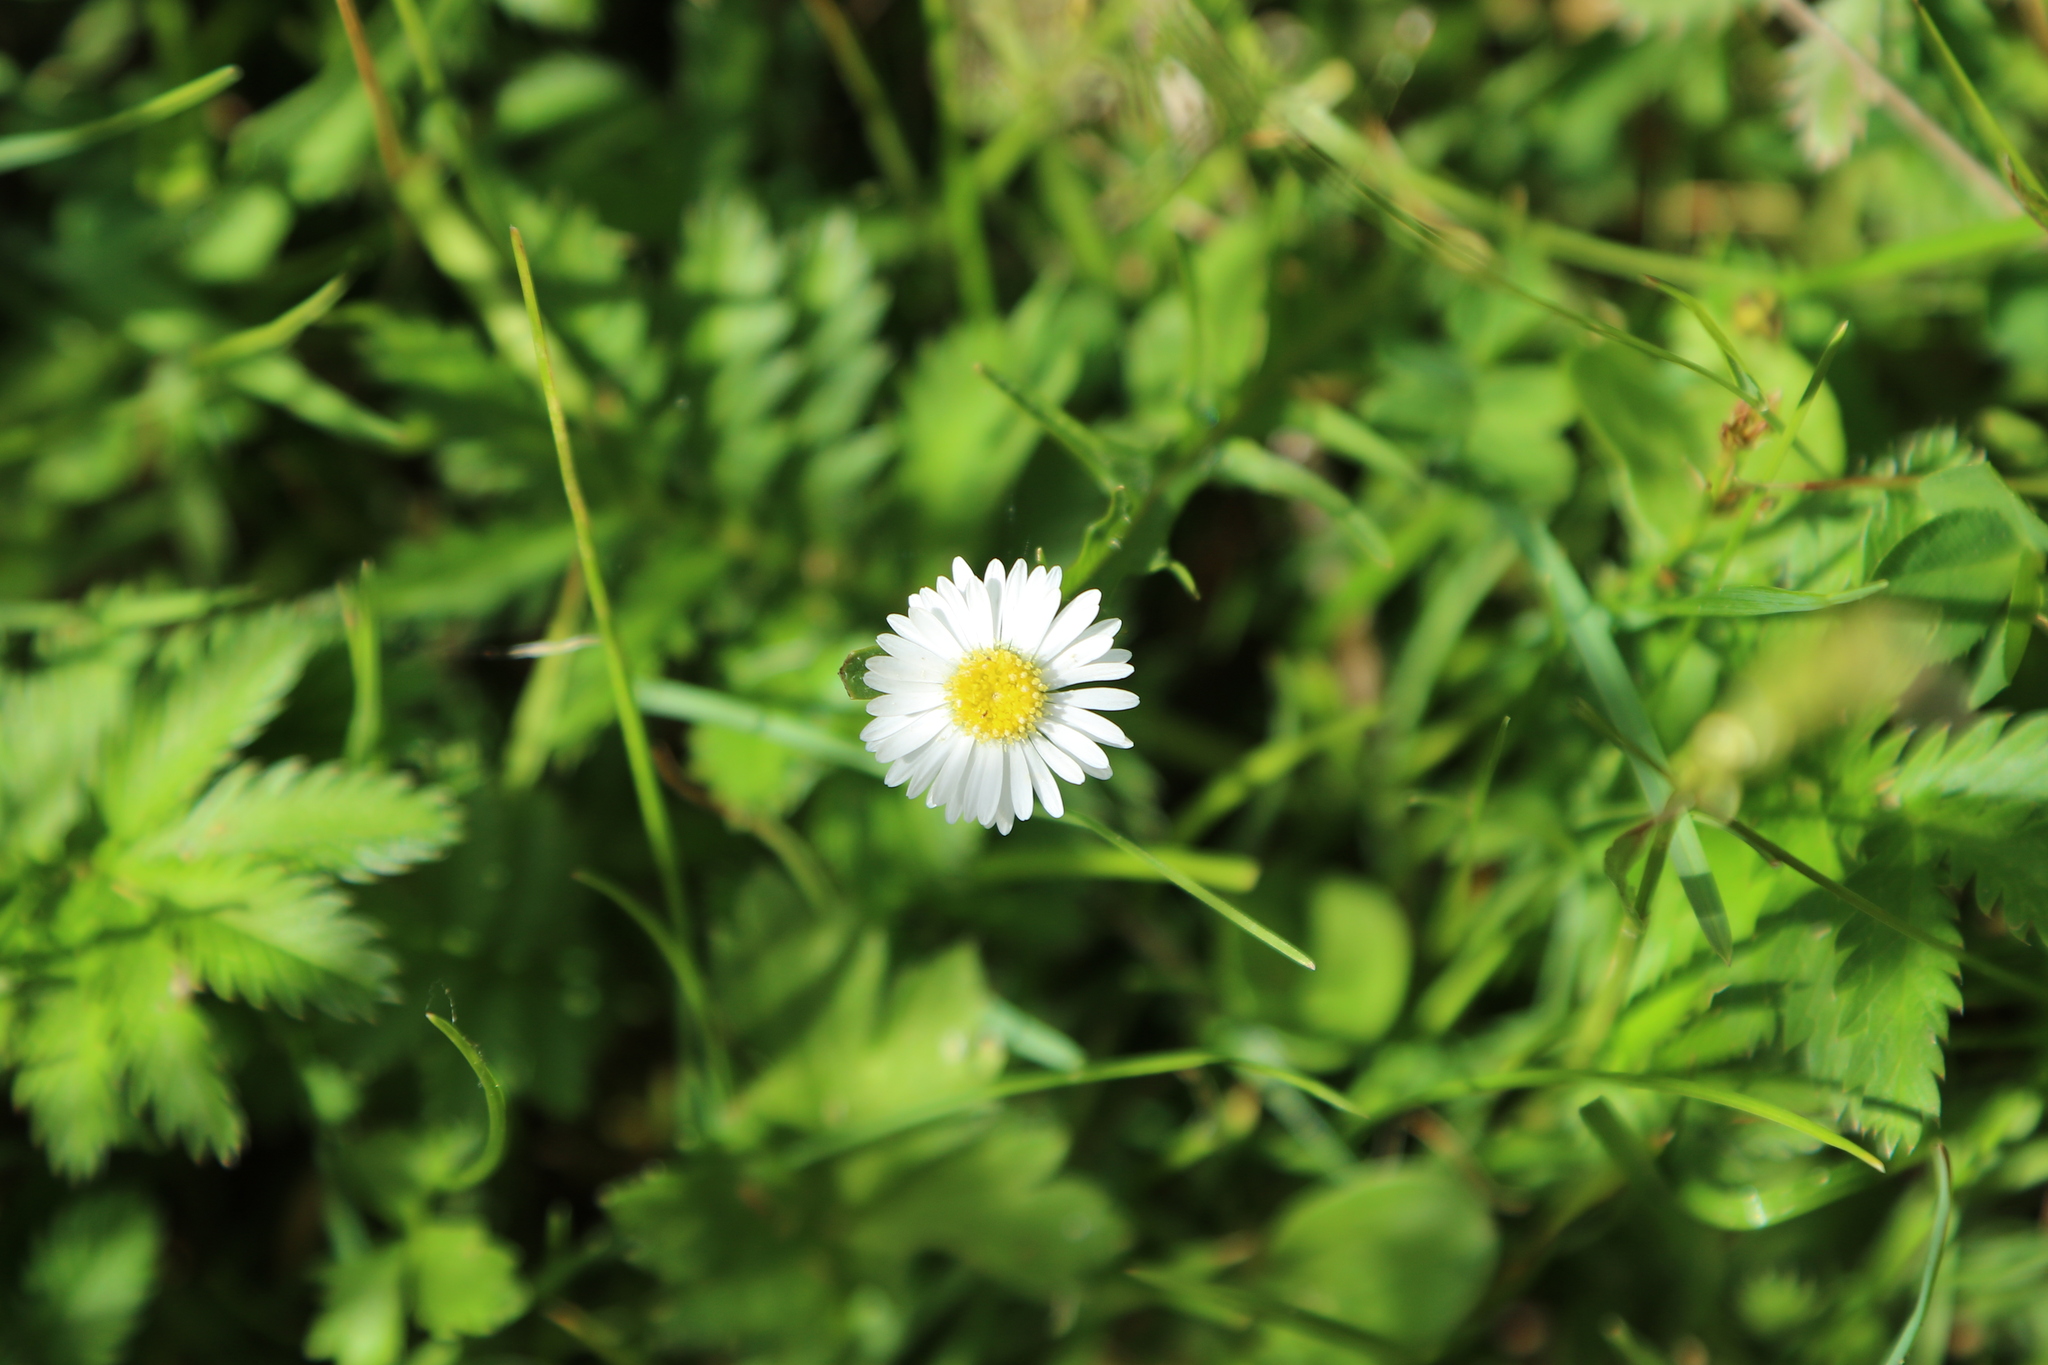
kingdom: Plantae
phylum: Tracheophyta
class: Magnoliopsida
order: Asterales
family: Asteraceae
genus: Bellis
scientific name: Bellis perennis
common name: Lawndaisy
